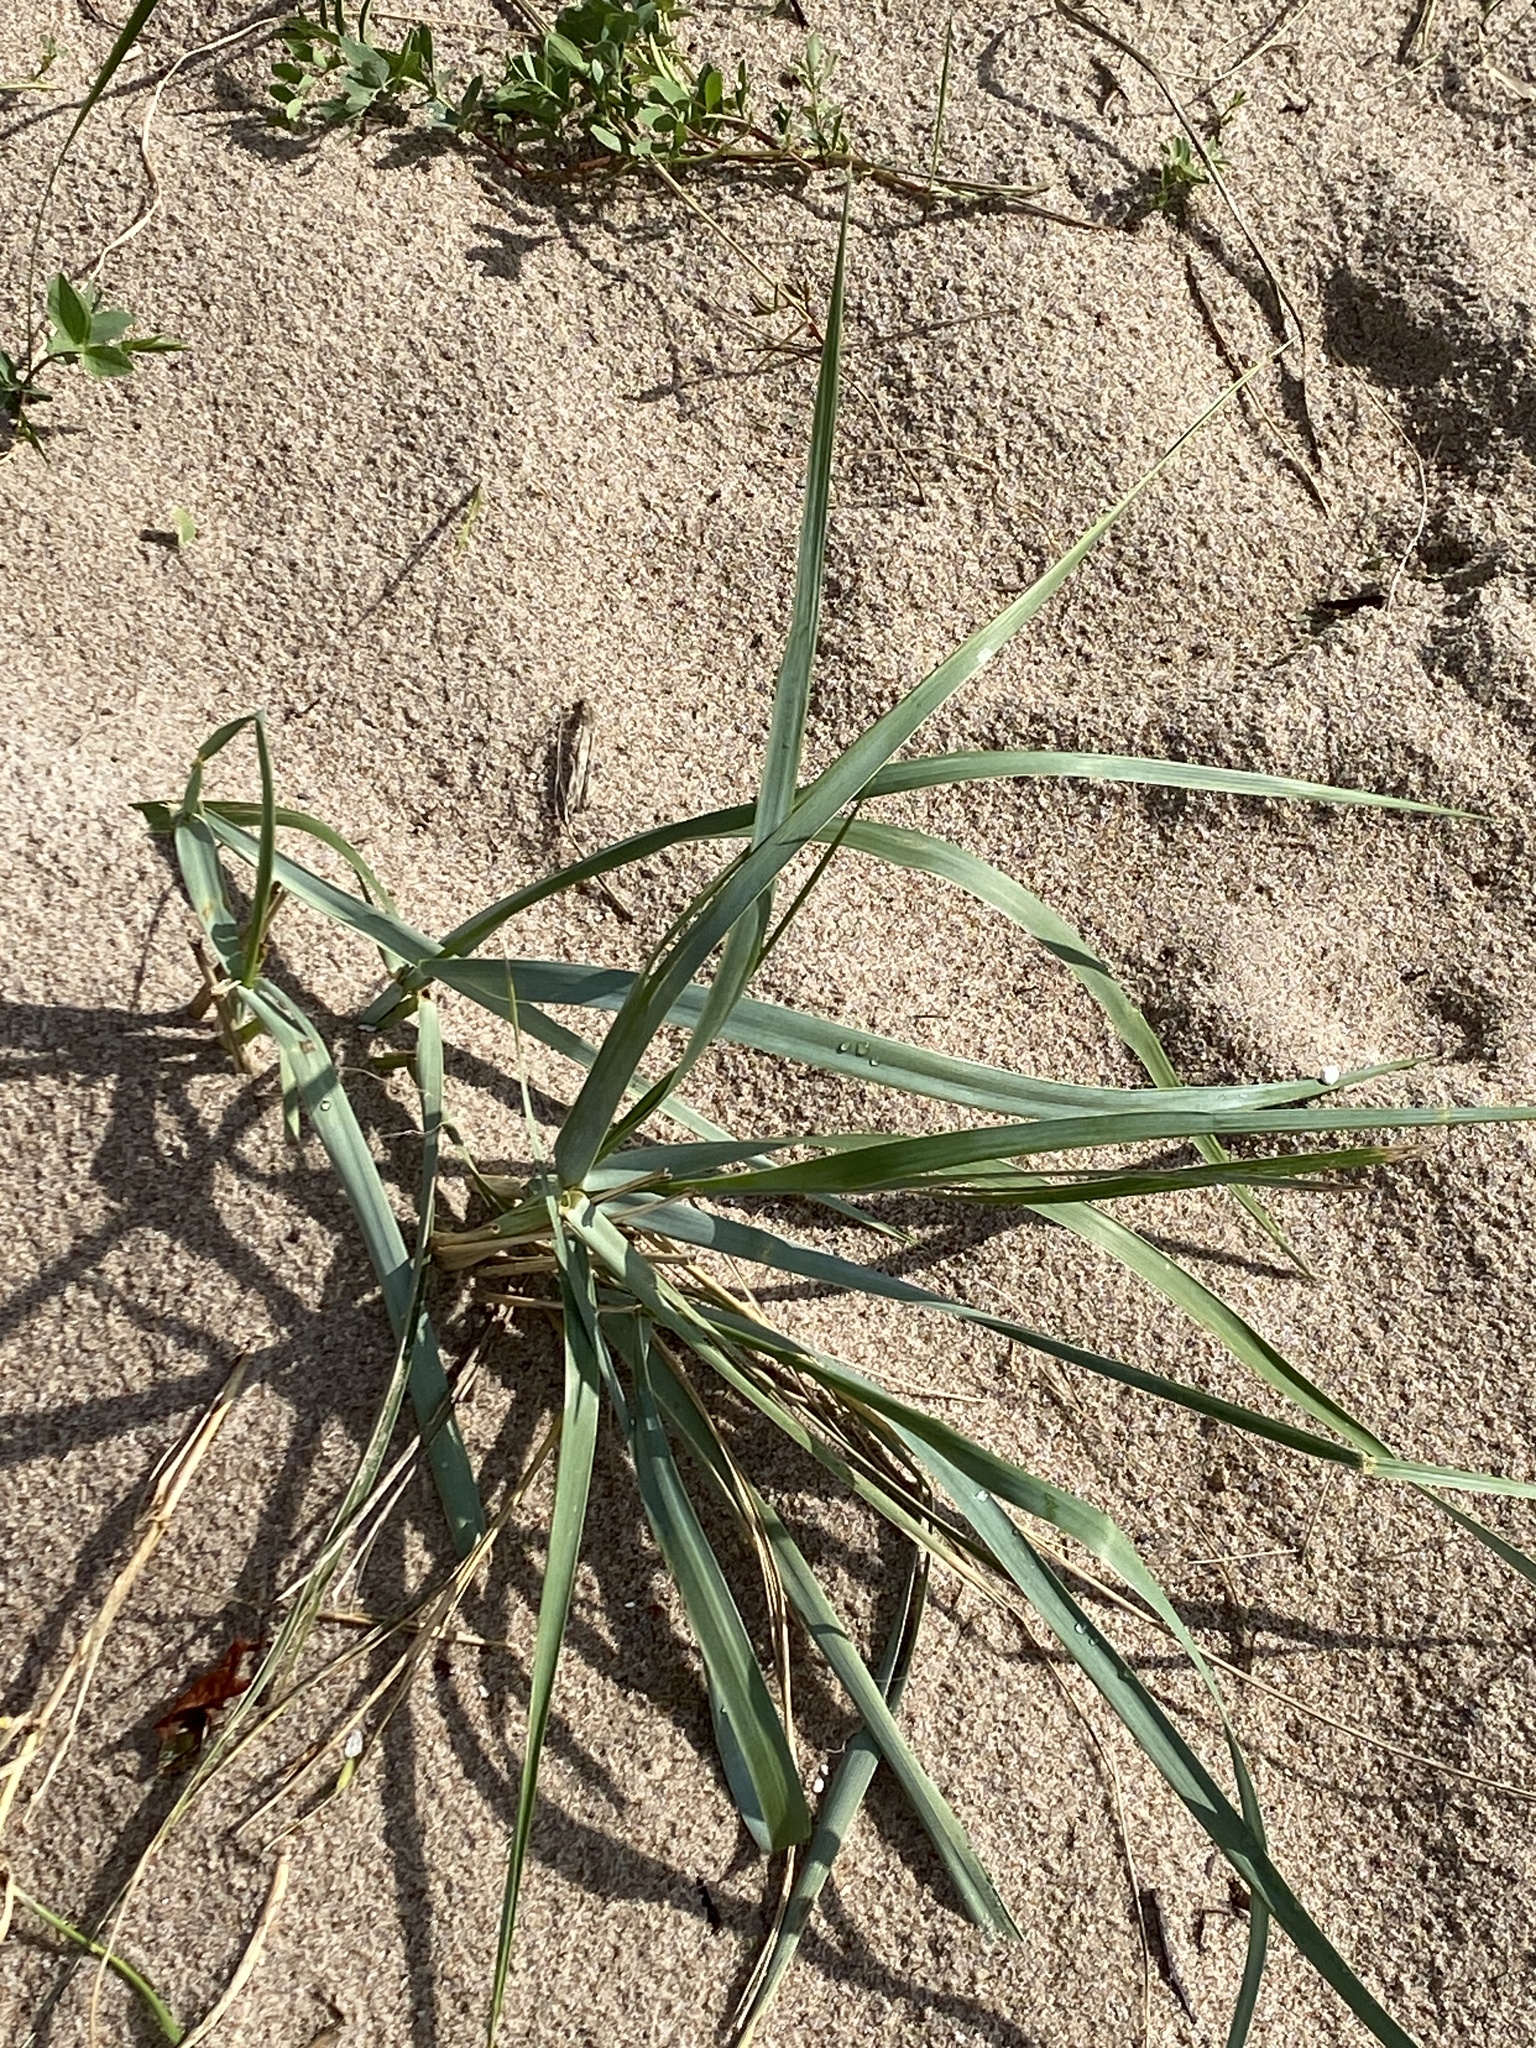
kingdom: Plantae
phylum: Tracheophyta
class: Liliopsida
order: Poales
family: Poaceae
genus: Leymus
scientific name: Leymus arenarius
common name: Lyme-grass
